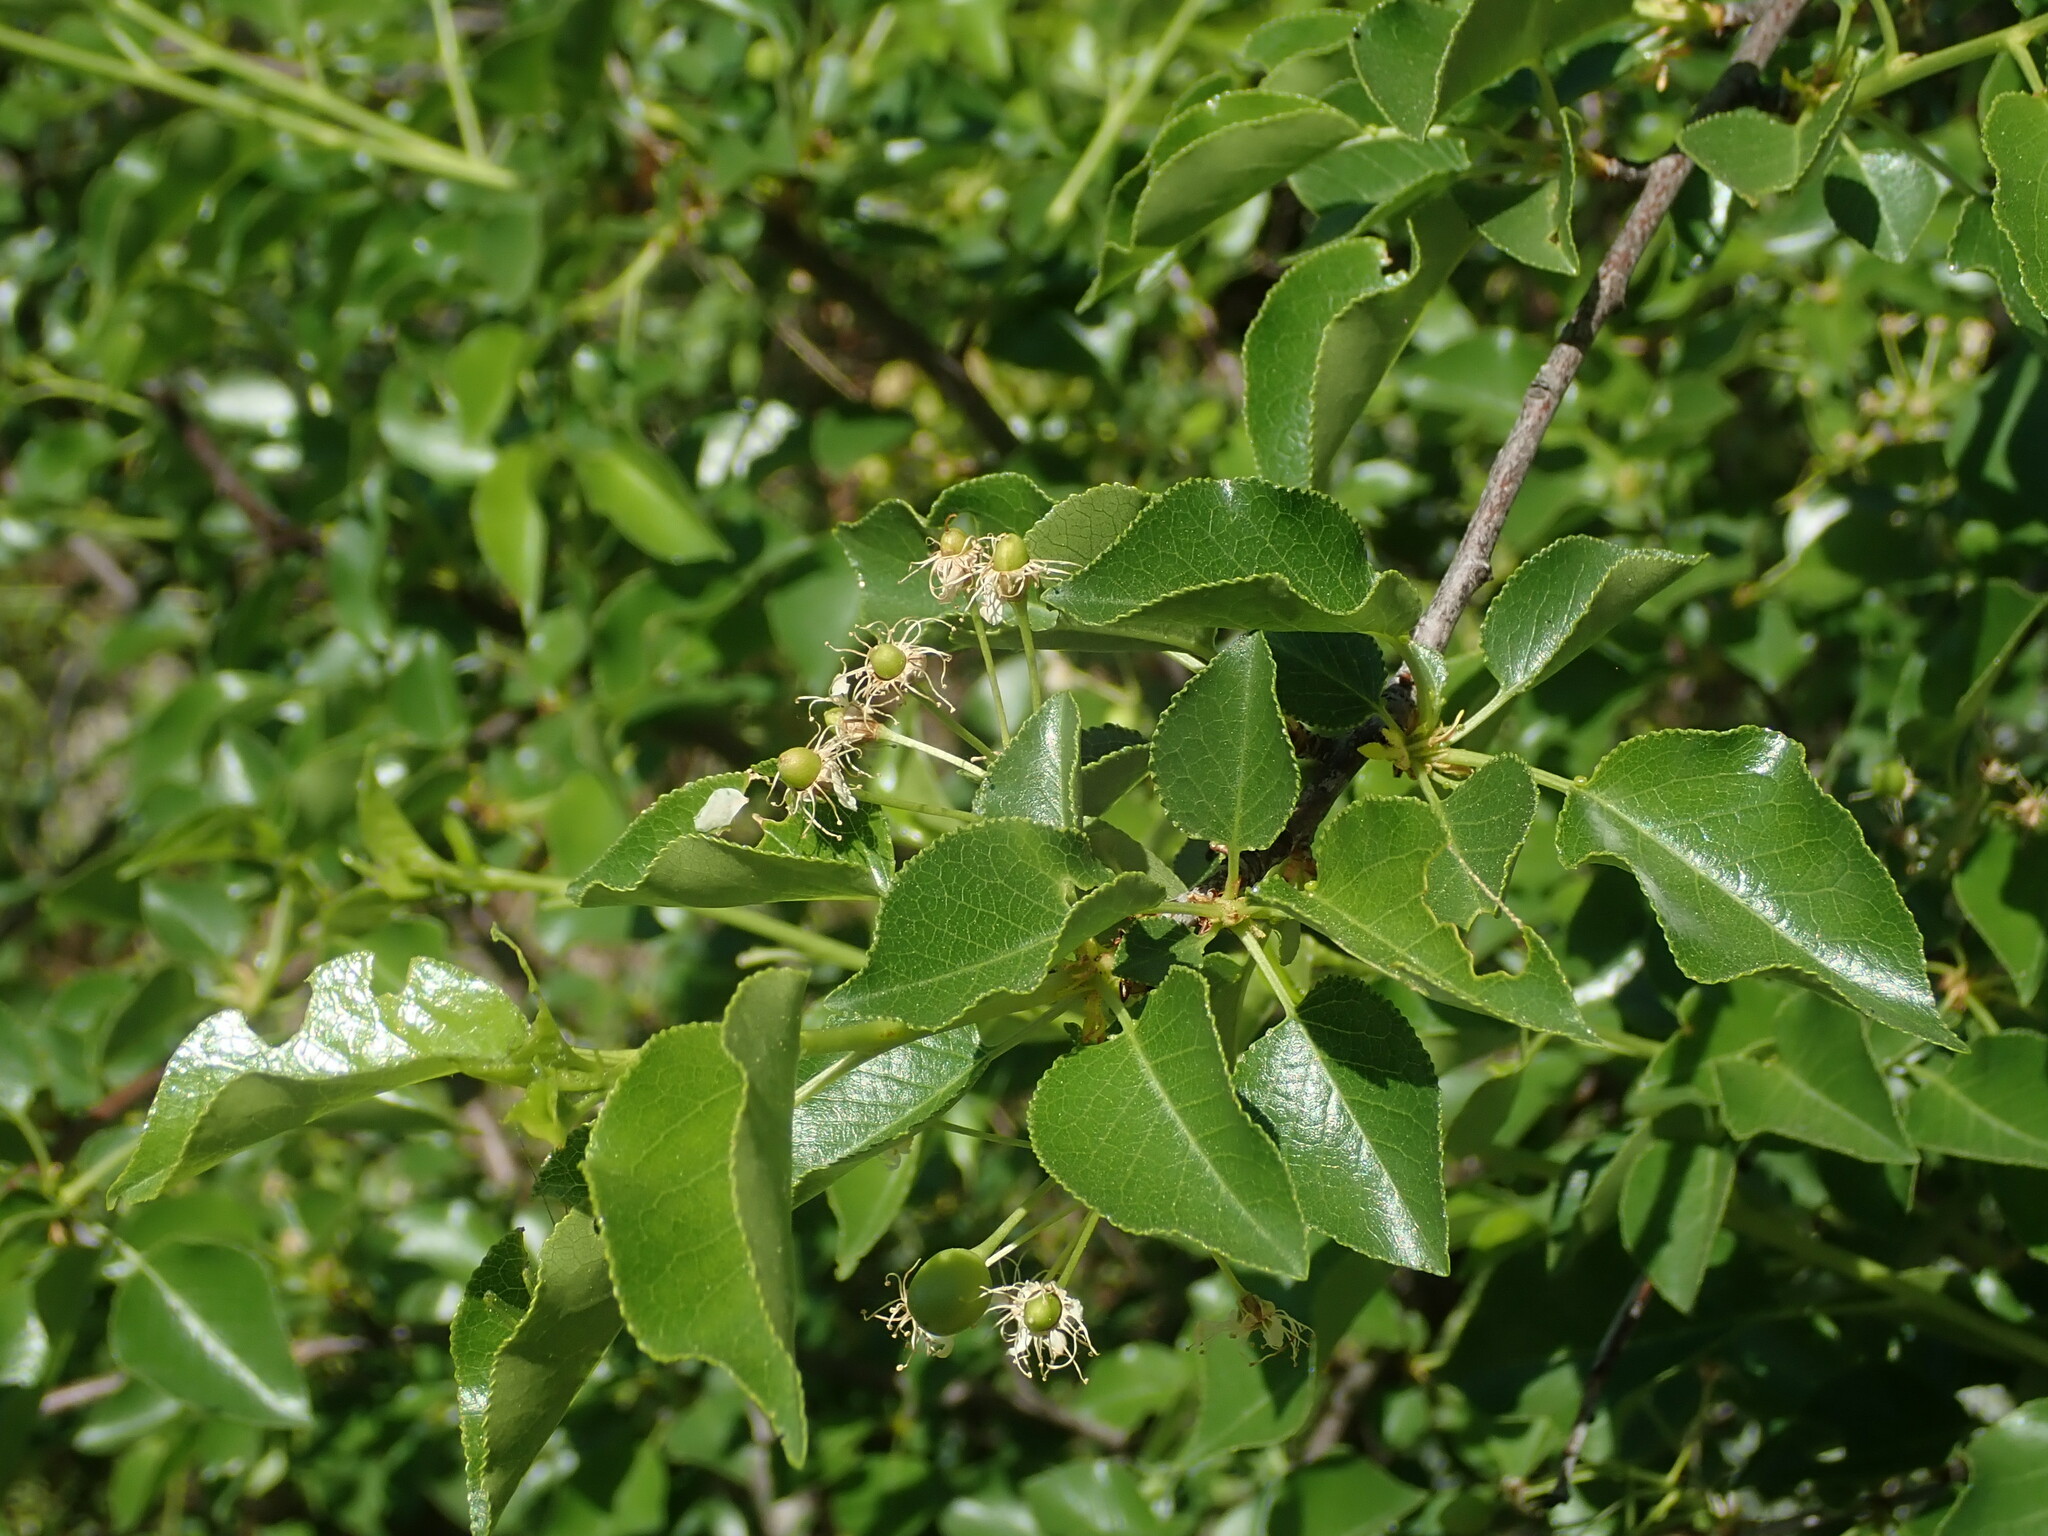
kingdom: Plantae
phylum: Tracheophyta
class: Magnoliopsida
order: Rosales
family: Rosaceae
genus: Prunus
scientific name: Prunus mahaleb
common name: Mahaleb cherry
